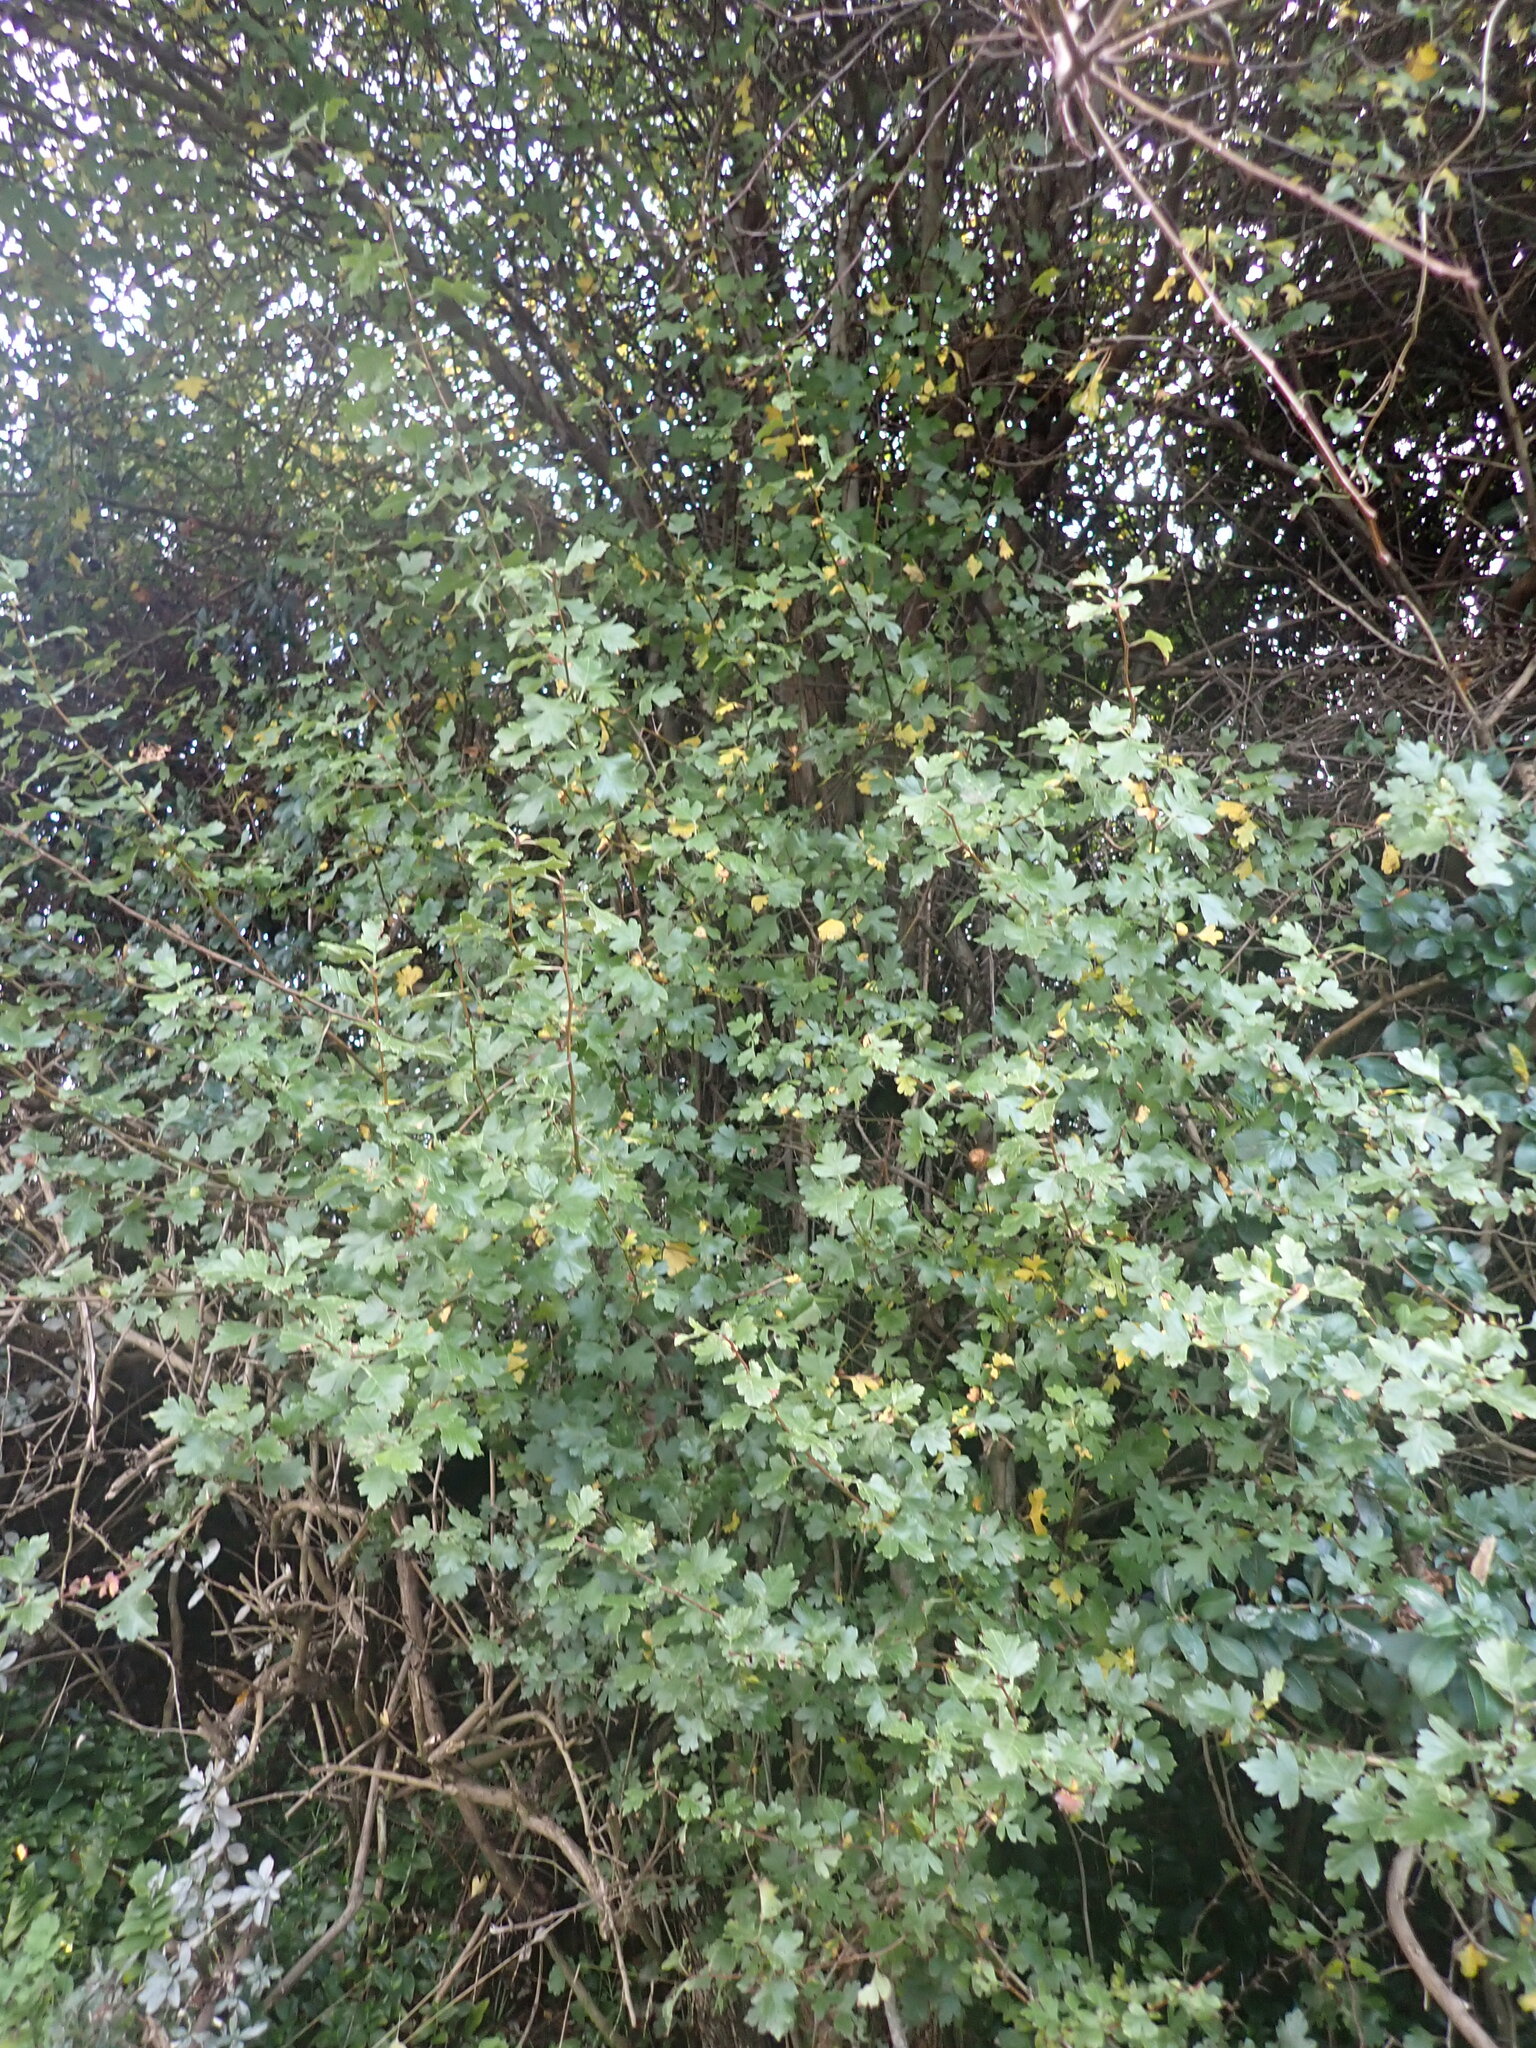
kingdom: Plantae
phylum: Tracheophyta
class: Magnoliopsida
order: Rosales
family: Rosaceae
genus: Crataegus
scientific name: Crataegus monogyna
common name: Hawthorn
